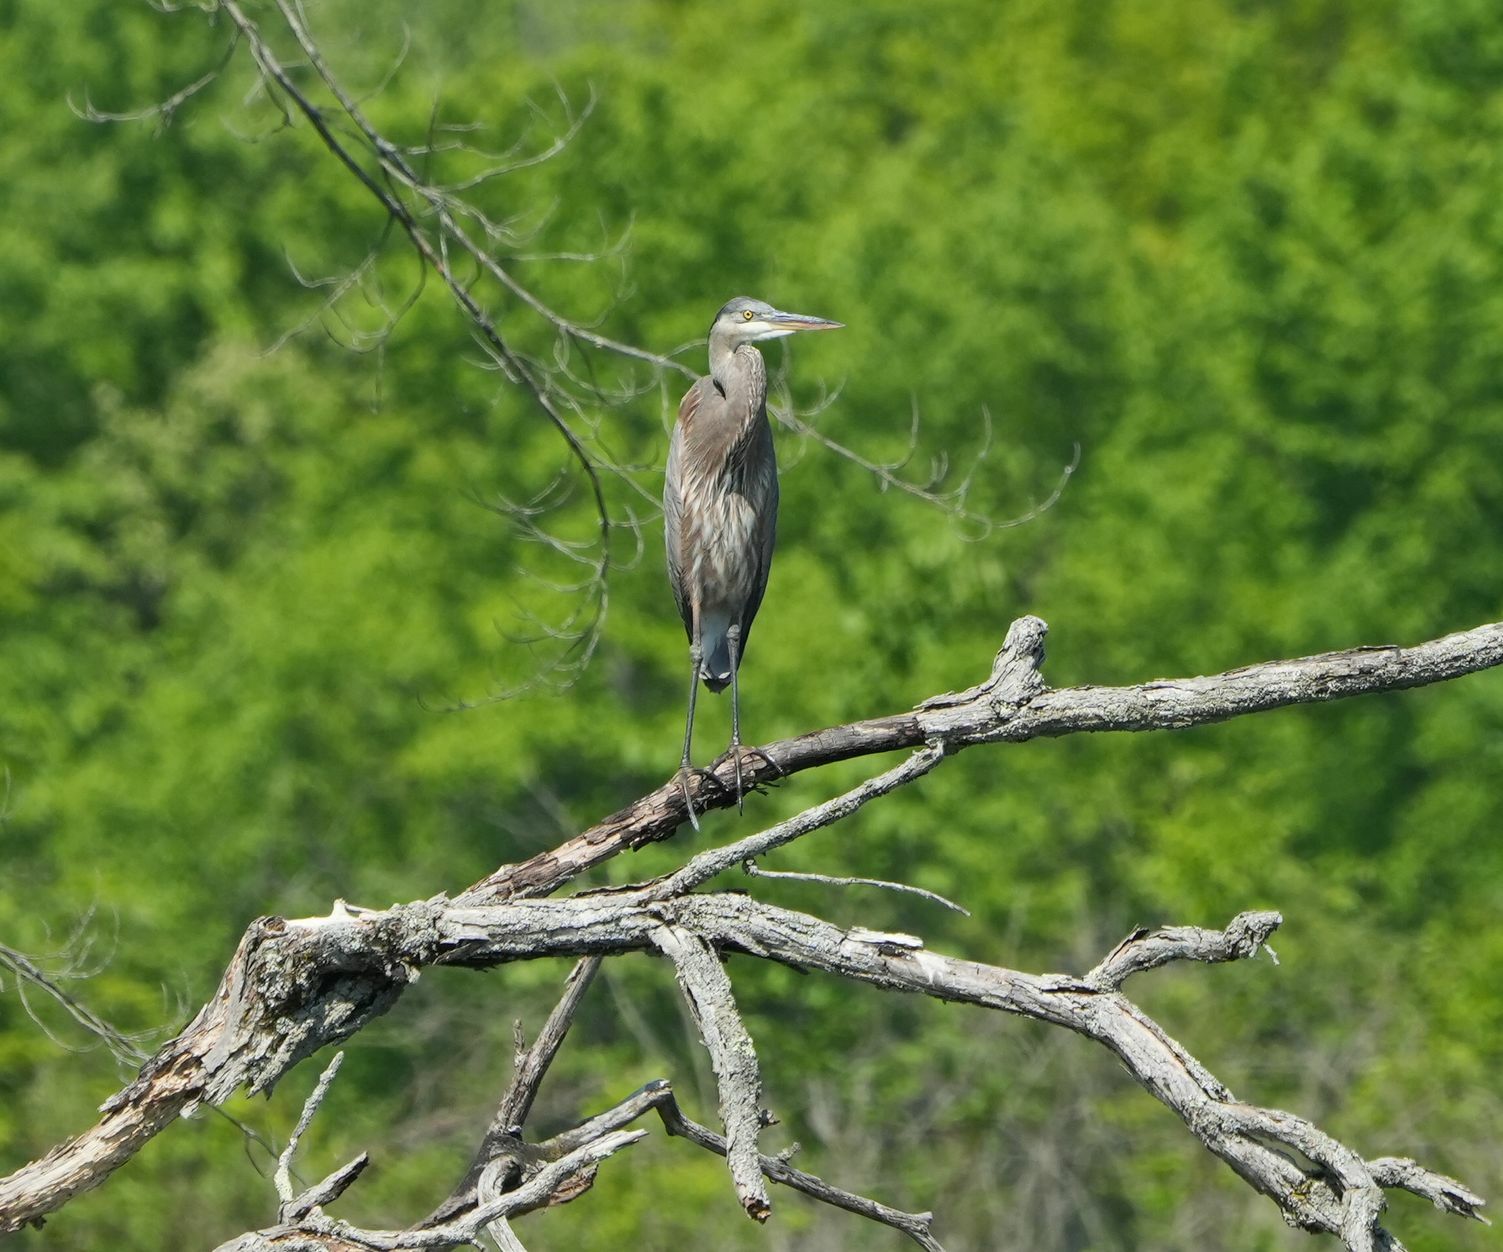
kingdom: Animalia
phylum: Chordata
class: Aves
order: Pelecaniformes
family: Ardeidae
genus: Ardea
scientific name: Ardea herodias
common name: Great blue heron
